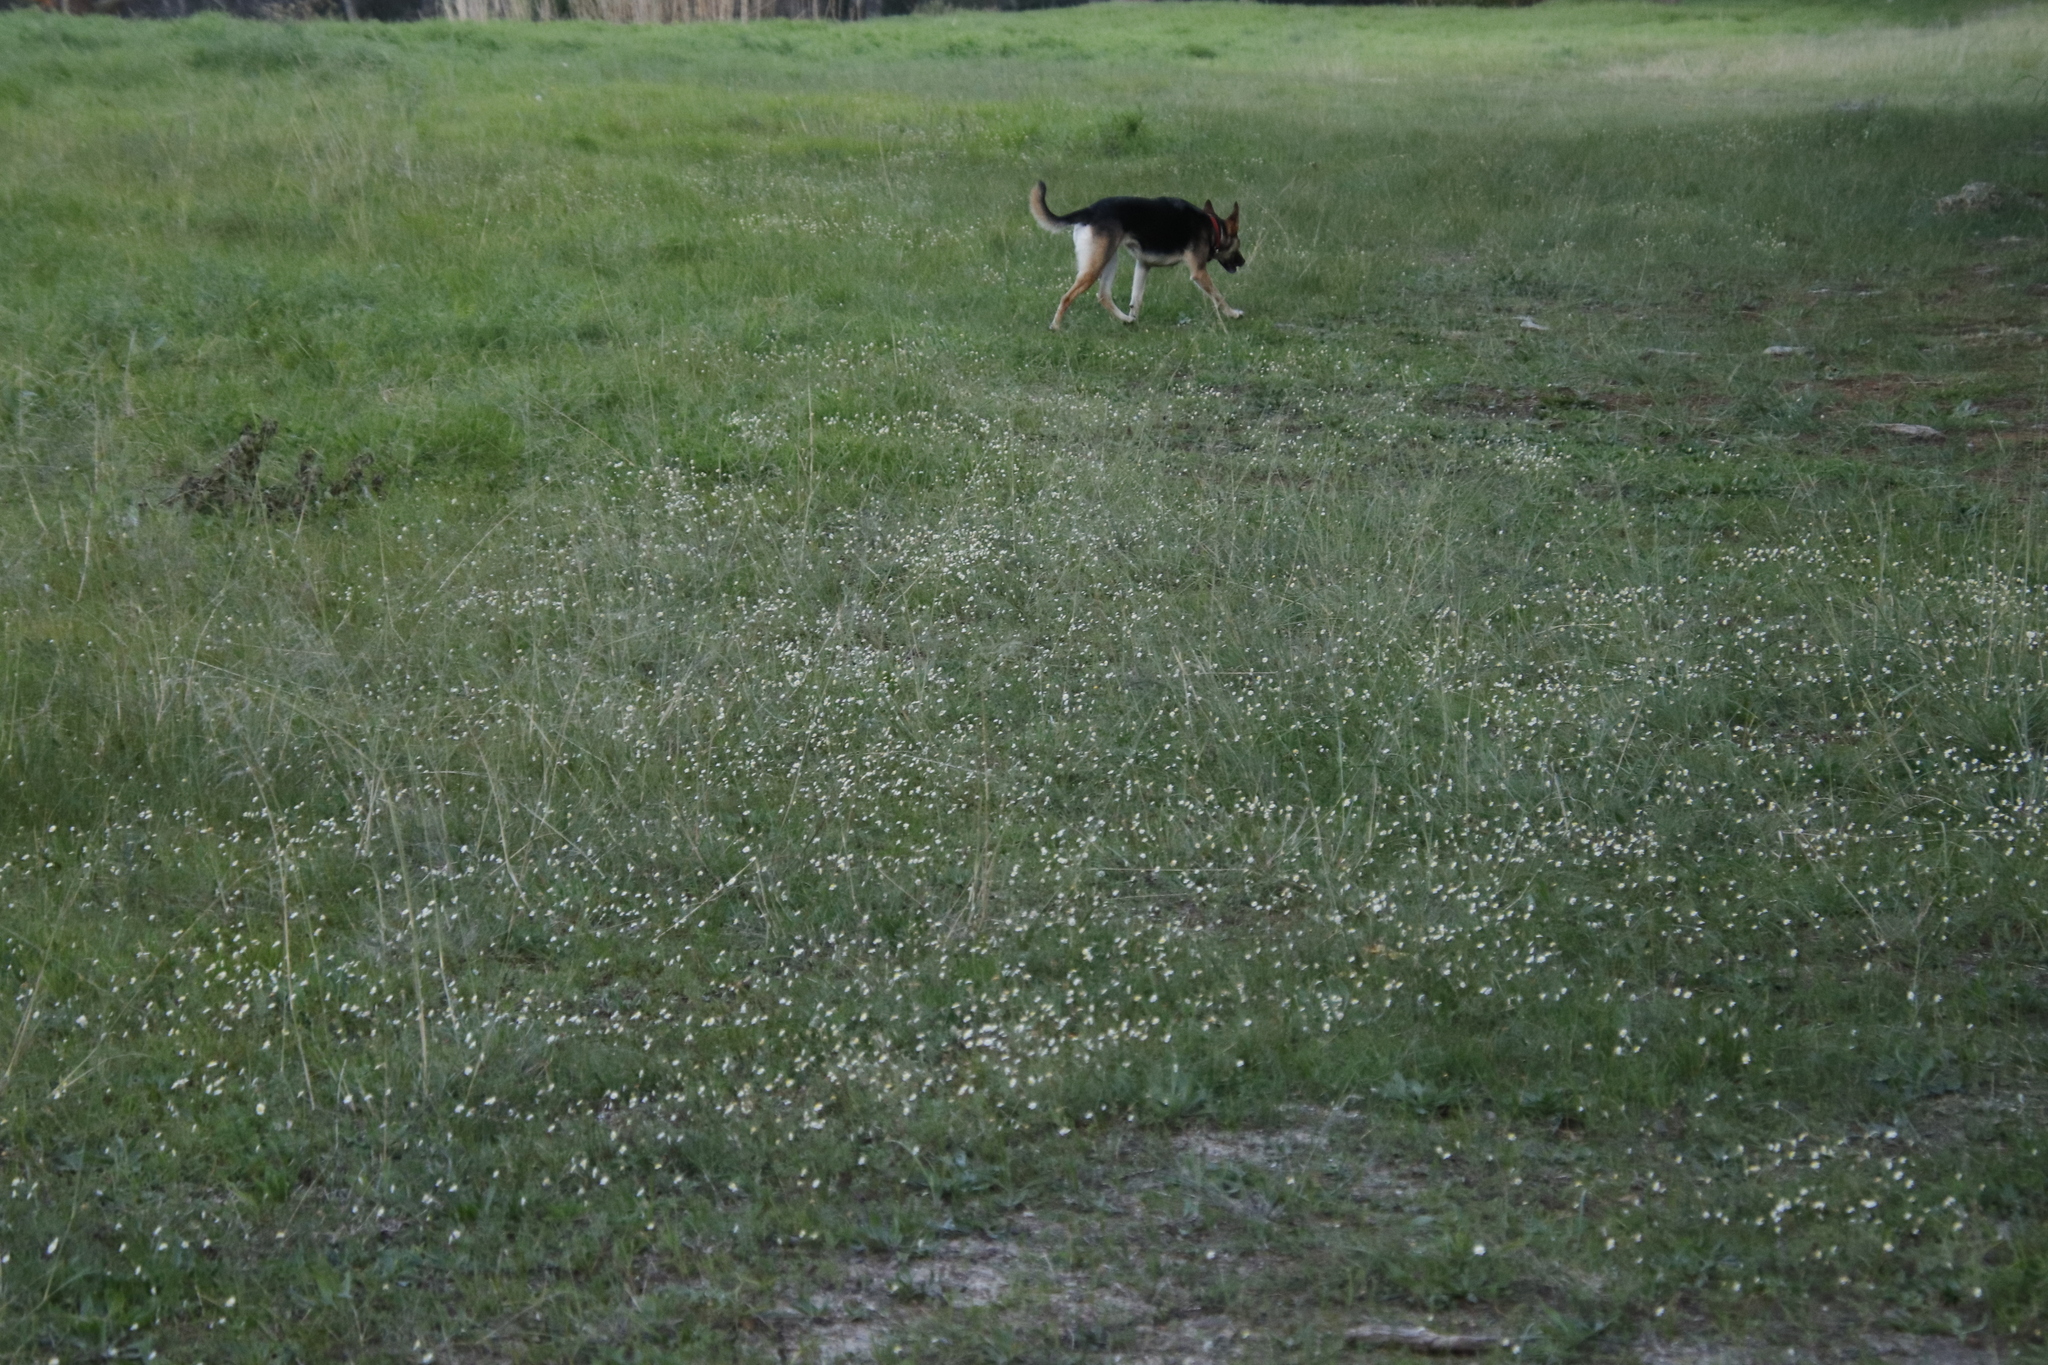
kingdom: Plantae
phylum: Tracheophyta
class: Magnoliopsida
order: Asterales
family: Asteraceae
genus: Cotula
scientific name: Cotula turbinata
